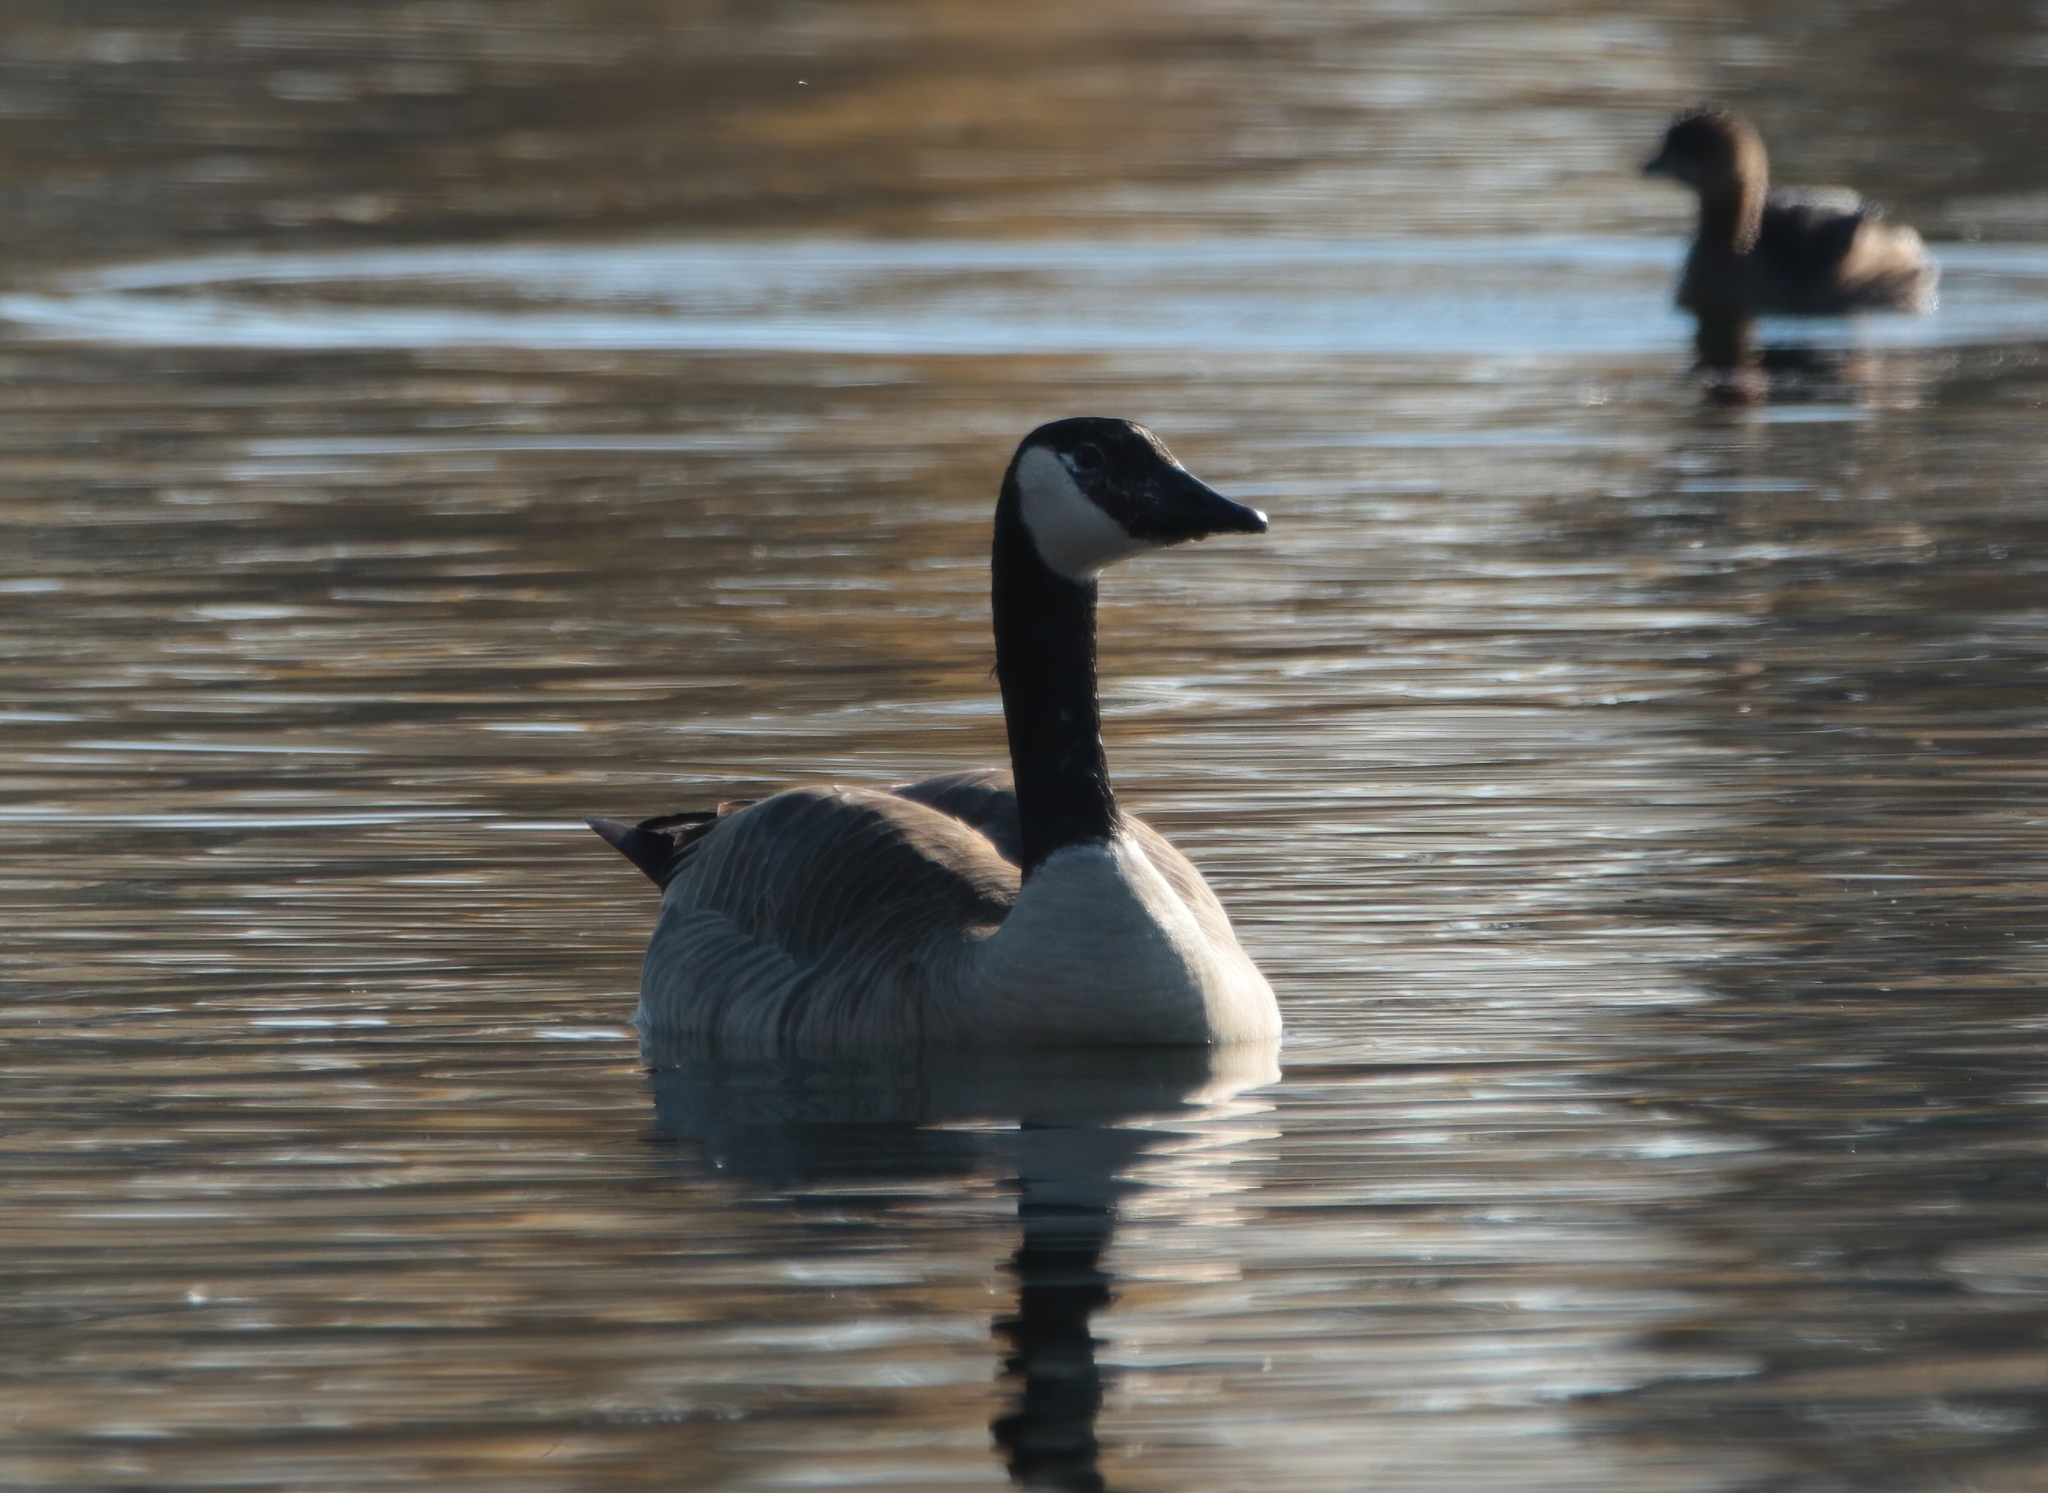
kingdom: Animalia
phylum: Chordata
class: Aves
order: Anseriformes
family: Anatidae
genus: Branta
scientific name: Branta canadensis
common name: Canada goose
